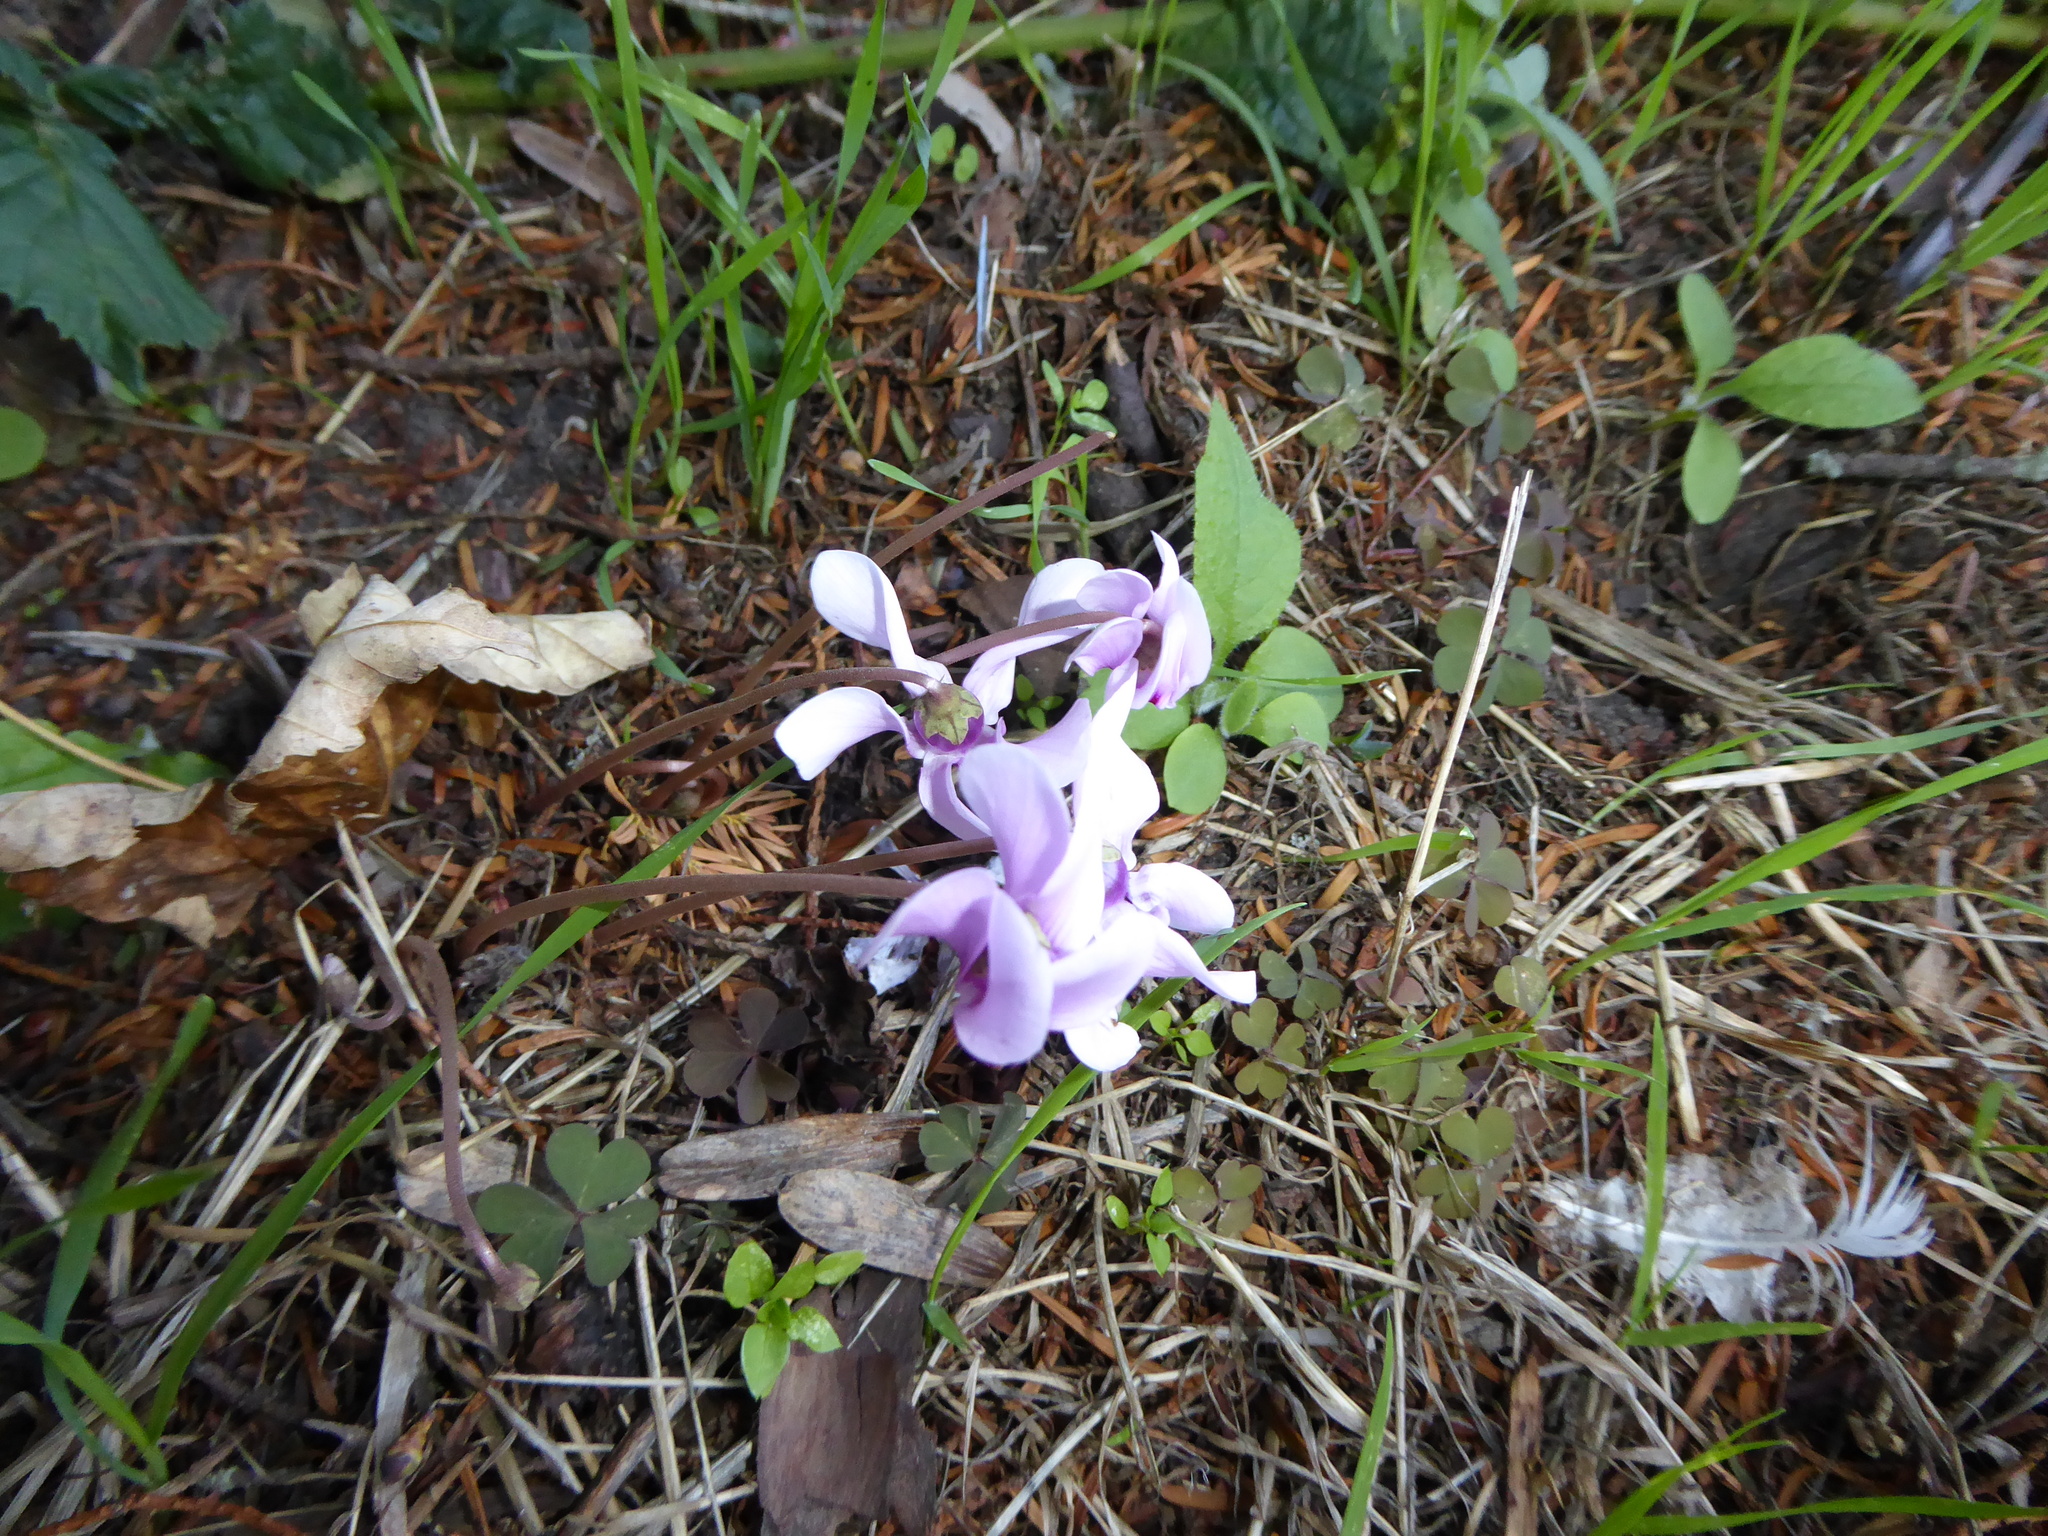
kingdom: Plantae
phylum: Tracheophyta
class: Magnoliopsida
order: Ericales
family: Primulaceae
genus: Cyclamen
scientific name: Cyclamen hederifolium
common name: Sowbread
